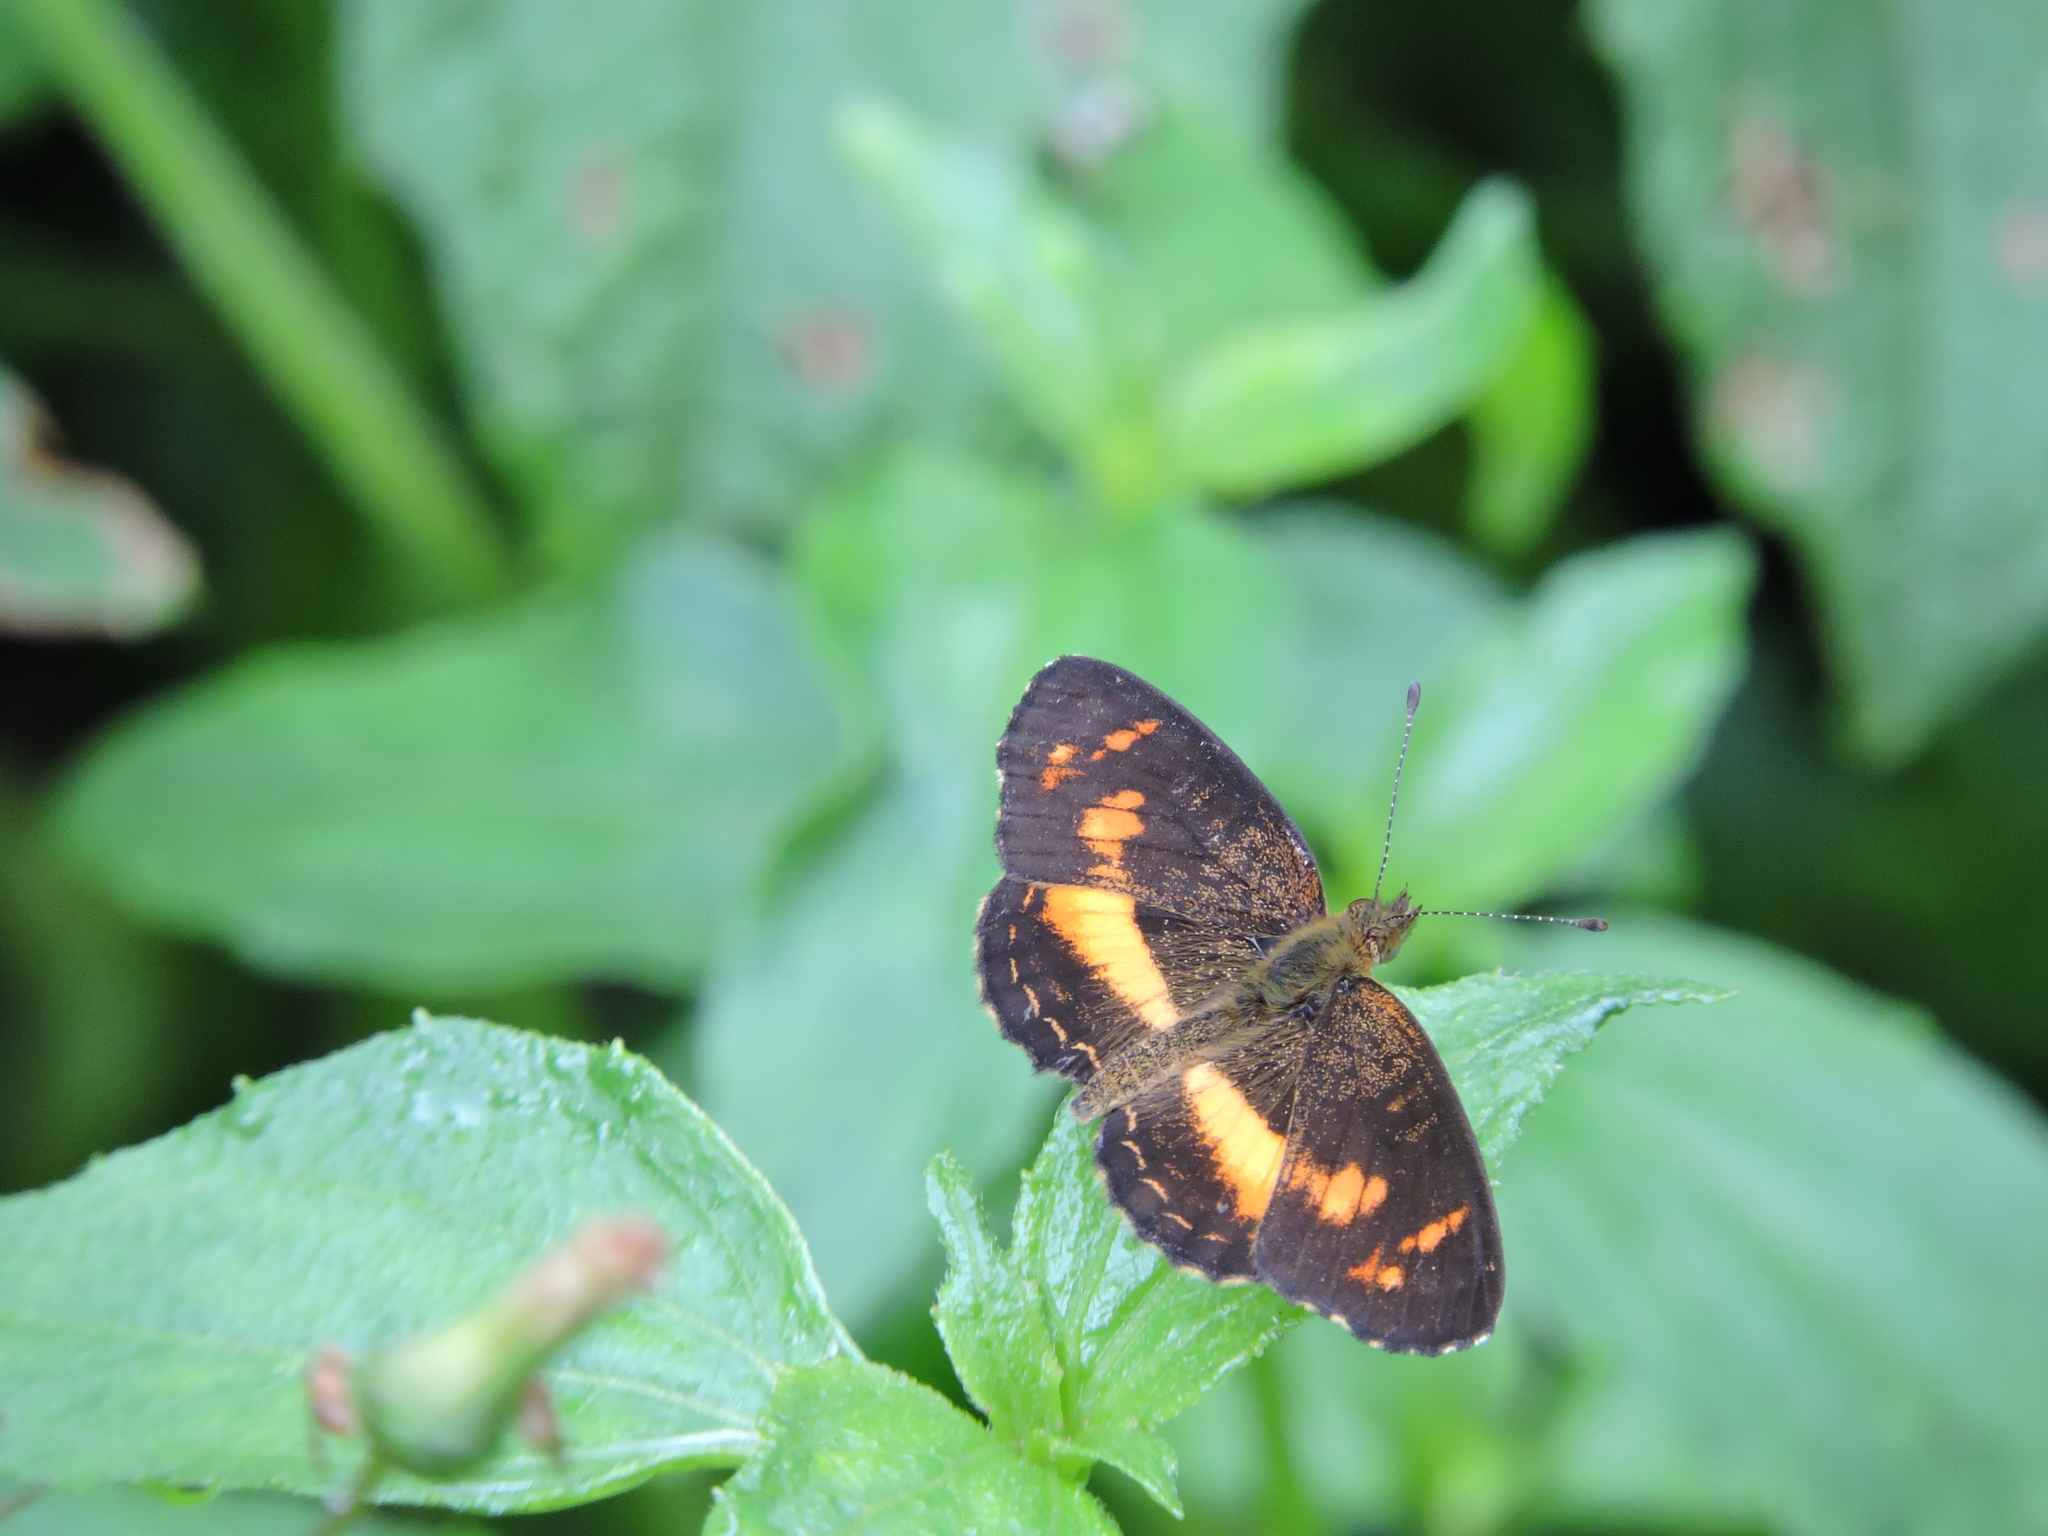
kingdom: Animalia
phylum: Arthropoda
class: Insecta
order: Lepidoptera
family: Nymphalidae
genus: Telenassa
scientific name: Telenassa teletusa
